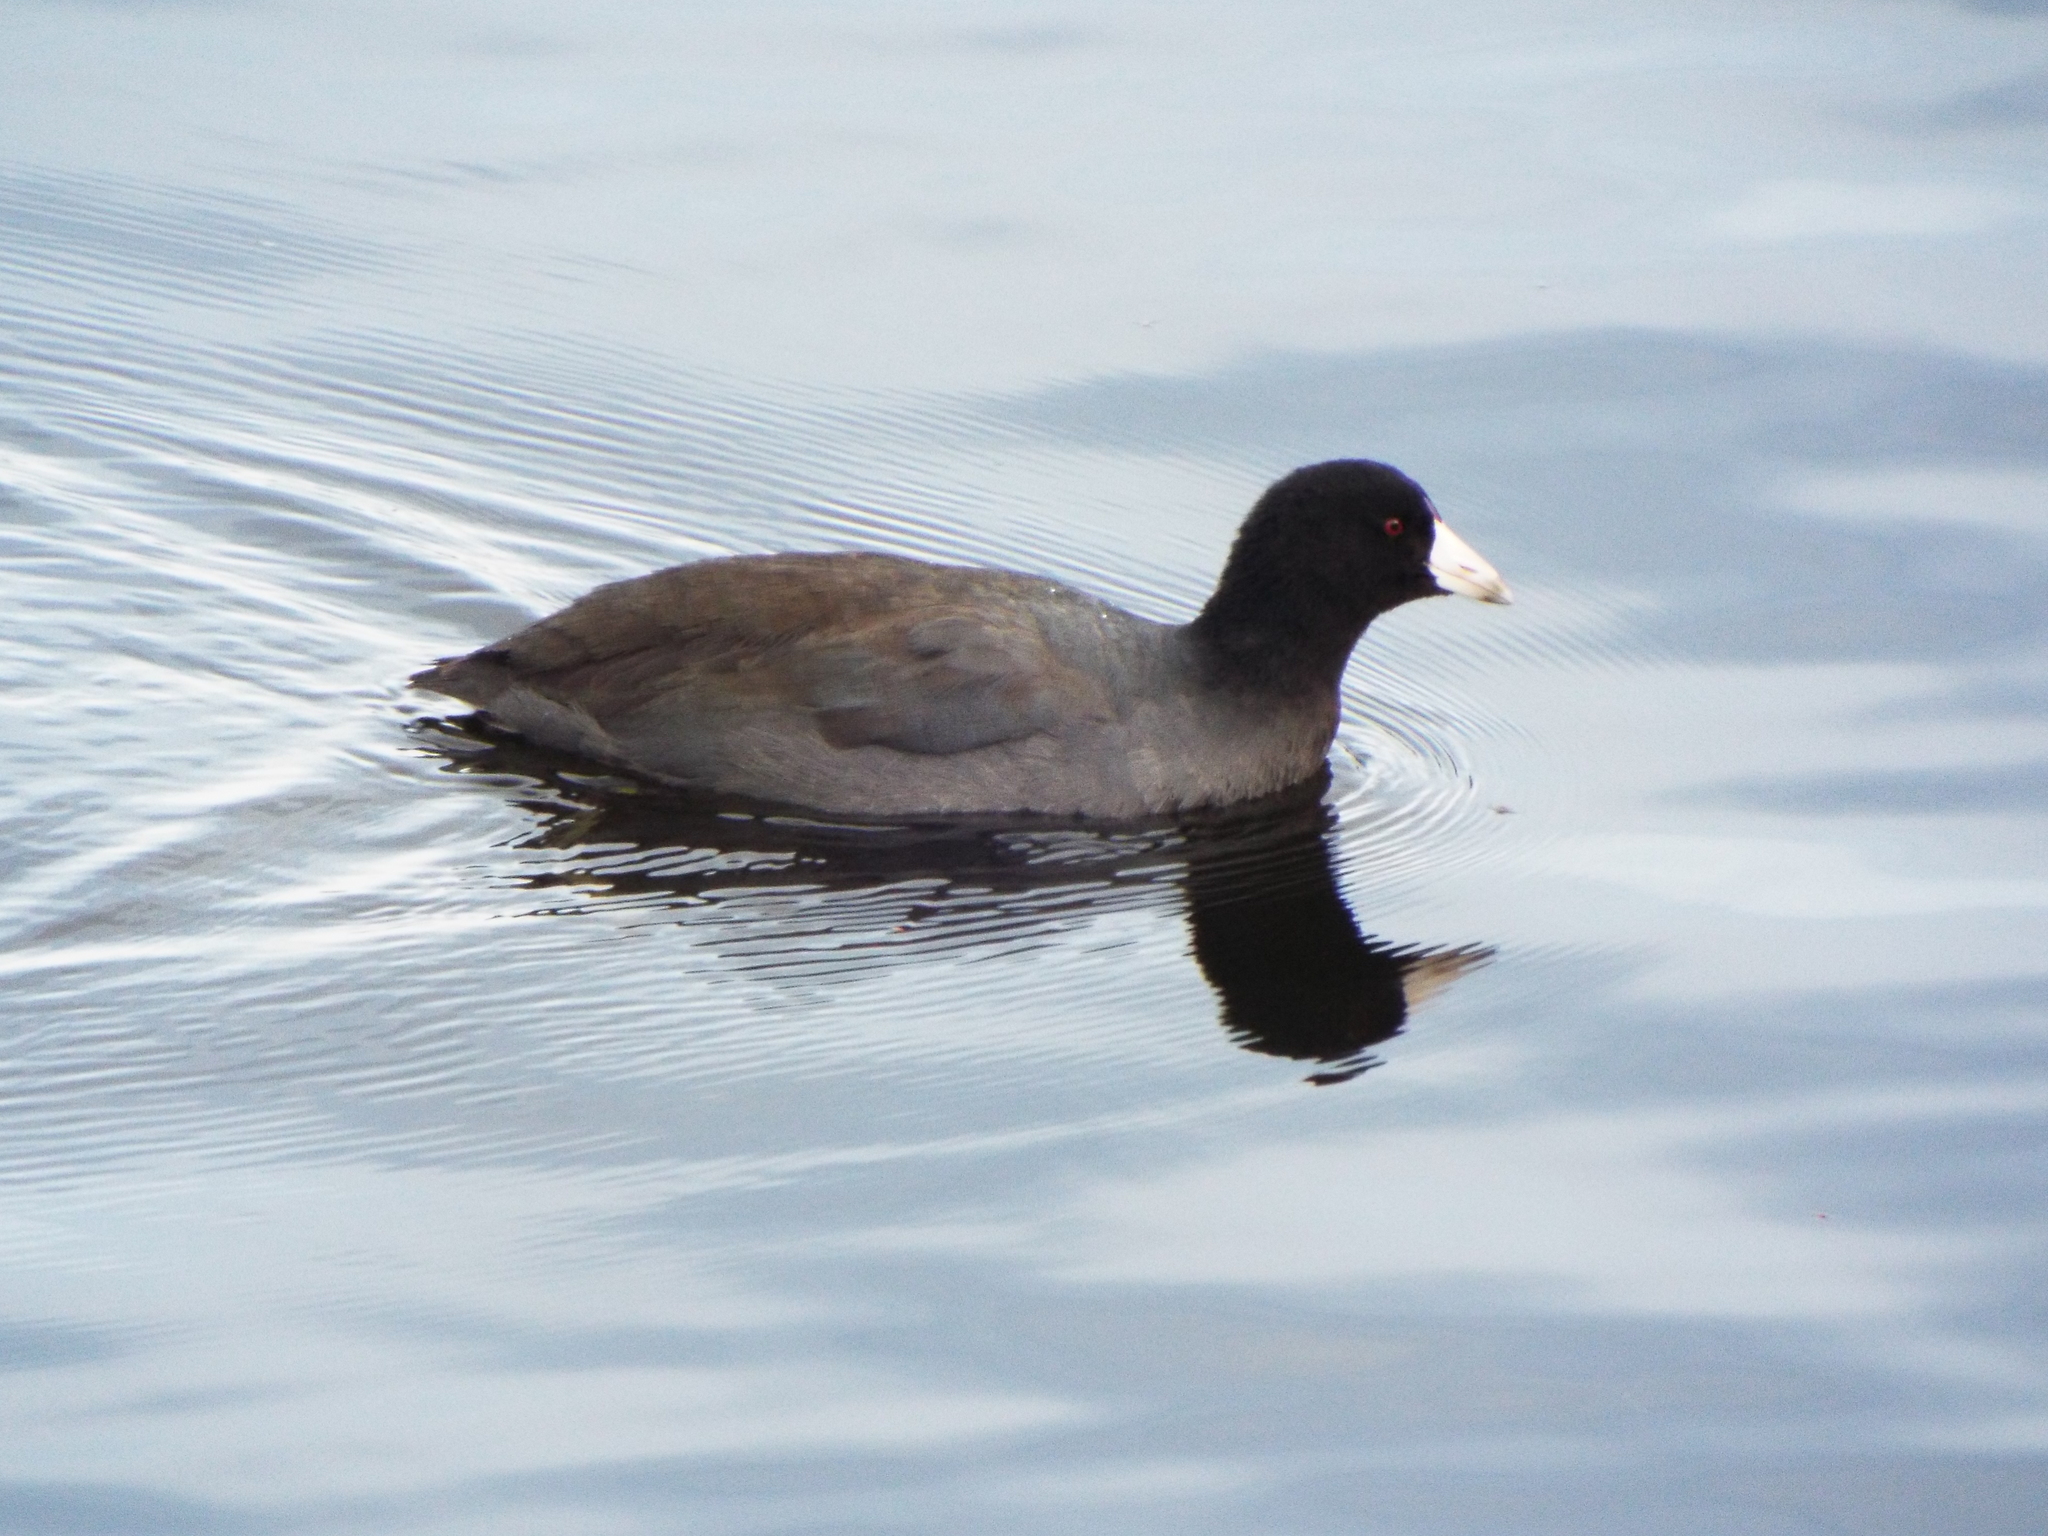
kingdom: Animalia
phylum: Chordata
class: Aves
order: Gruiformes
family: Rallidae
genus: Fulica
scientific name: Fulica americana
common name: American coot
